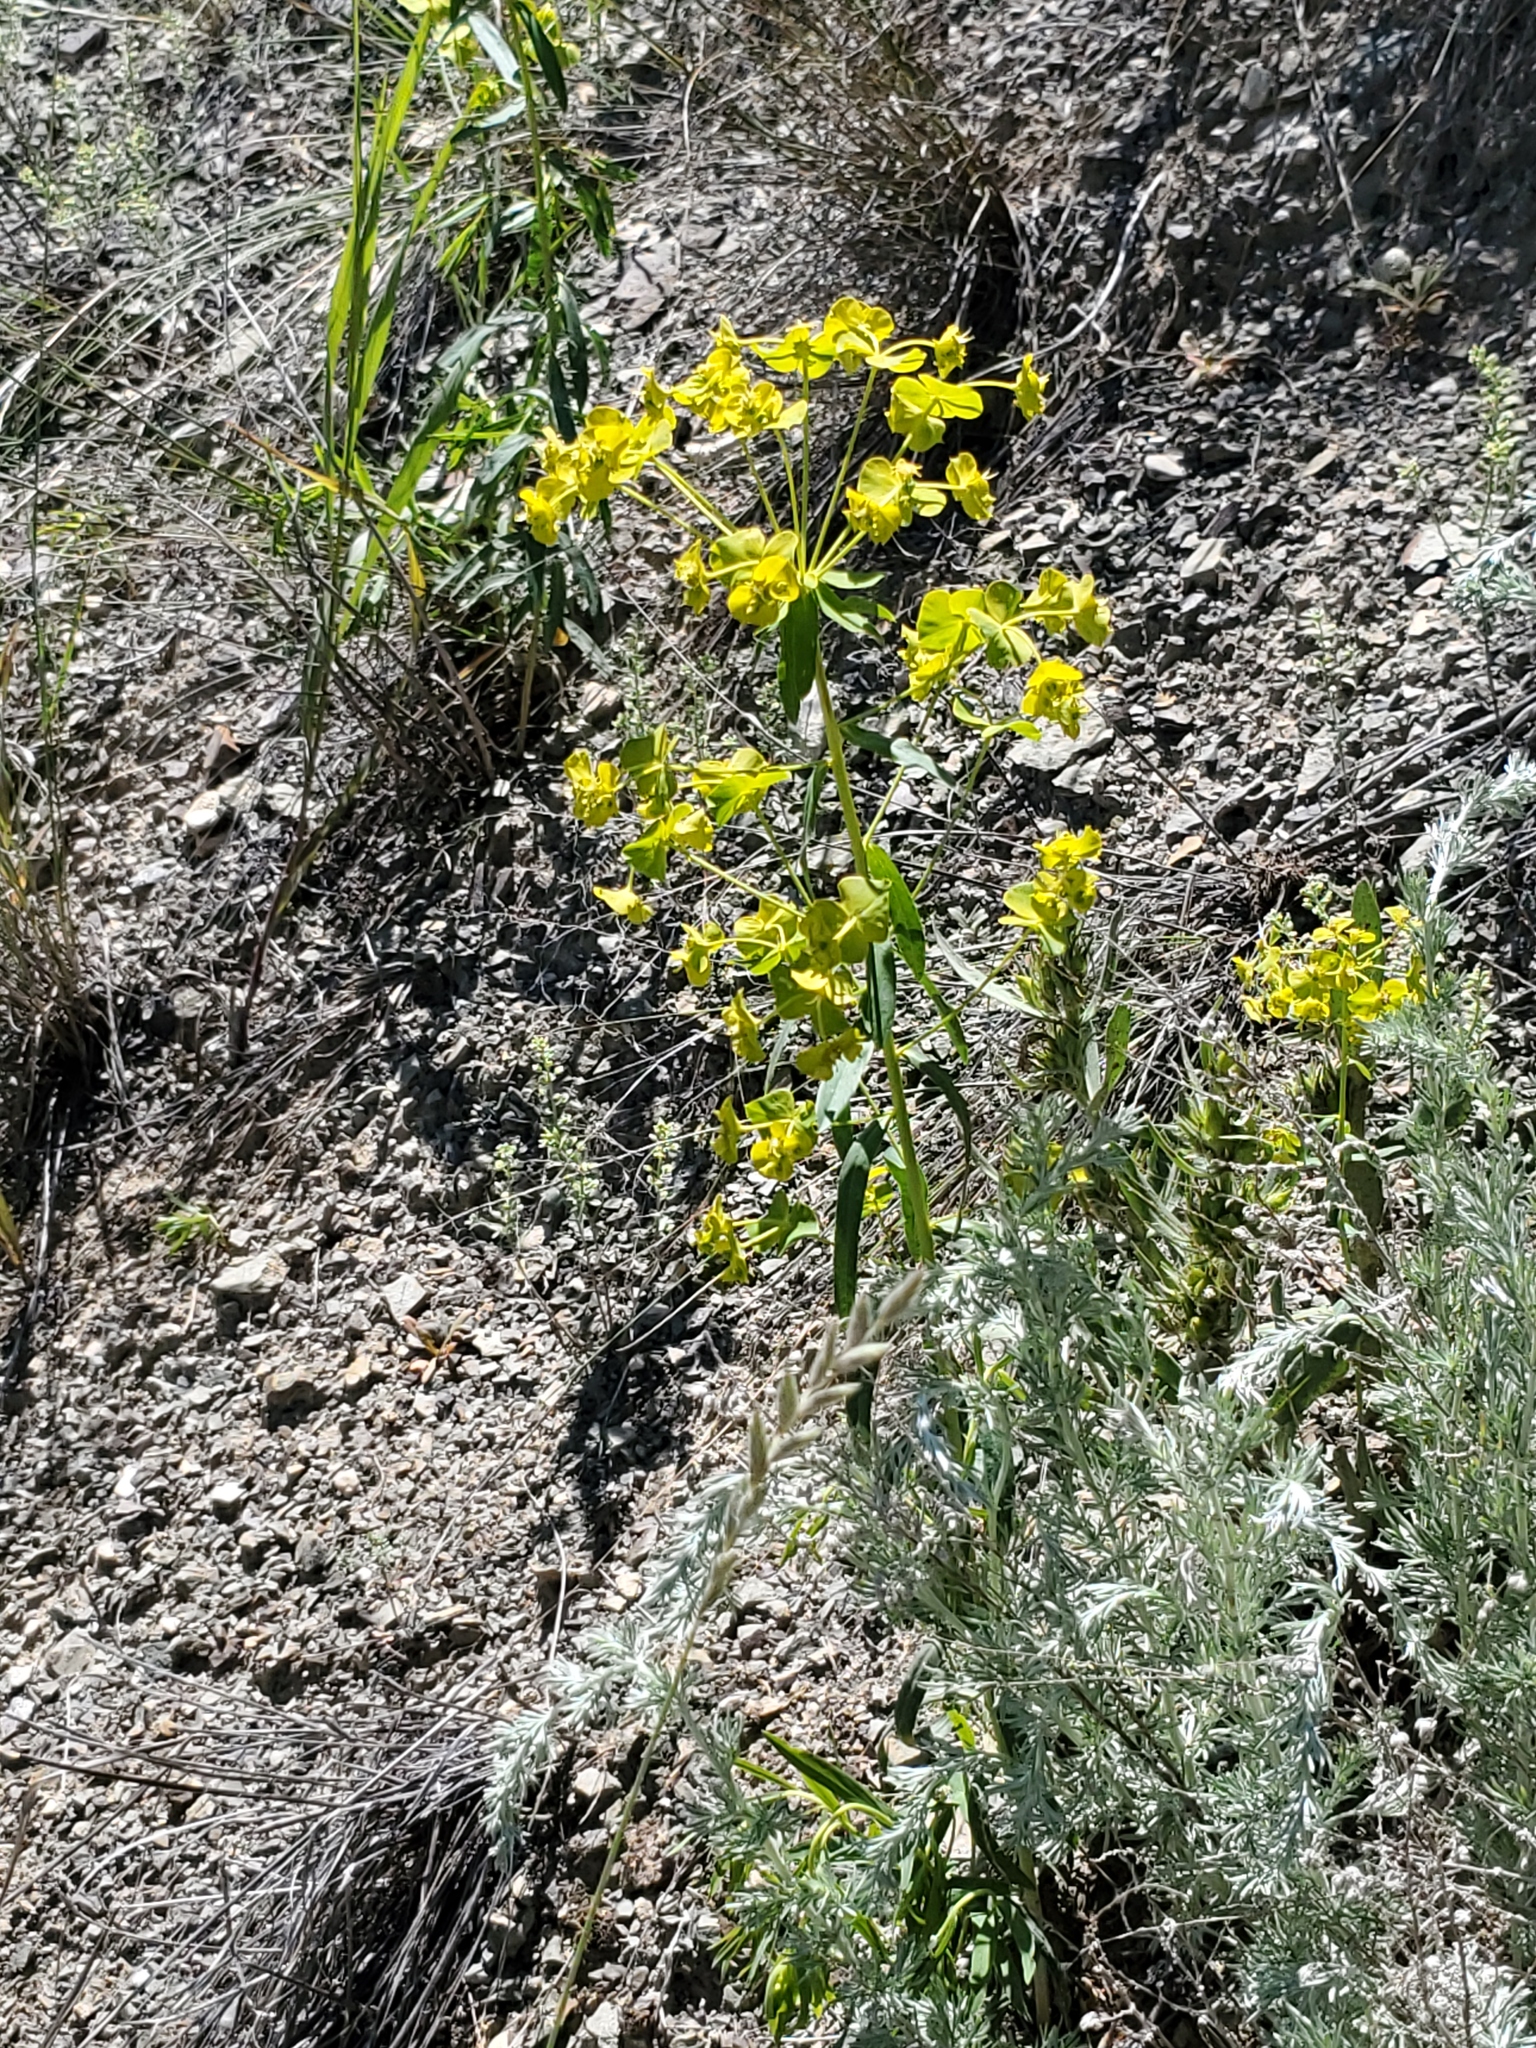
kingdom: Plantae
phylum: Tracheophyta
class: Magnoliopsida
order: Malpighiales
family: Euphorbiaceae
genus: Euphorbia
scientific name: Euphorbia virgata
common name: Leafy spurge
